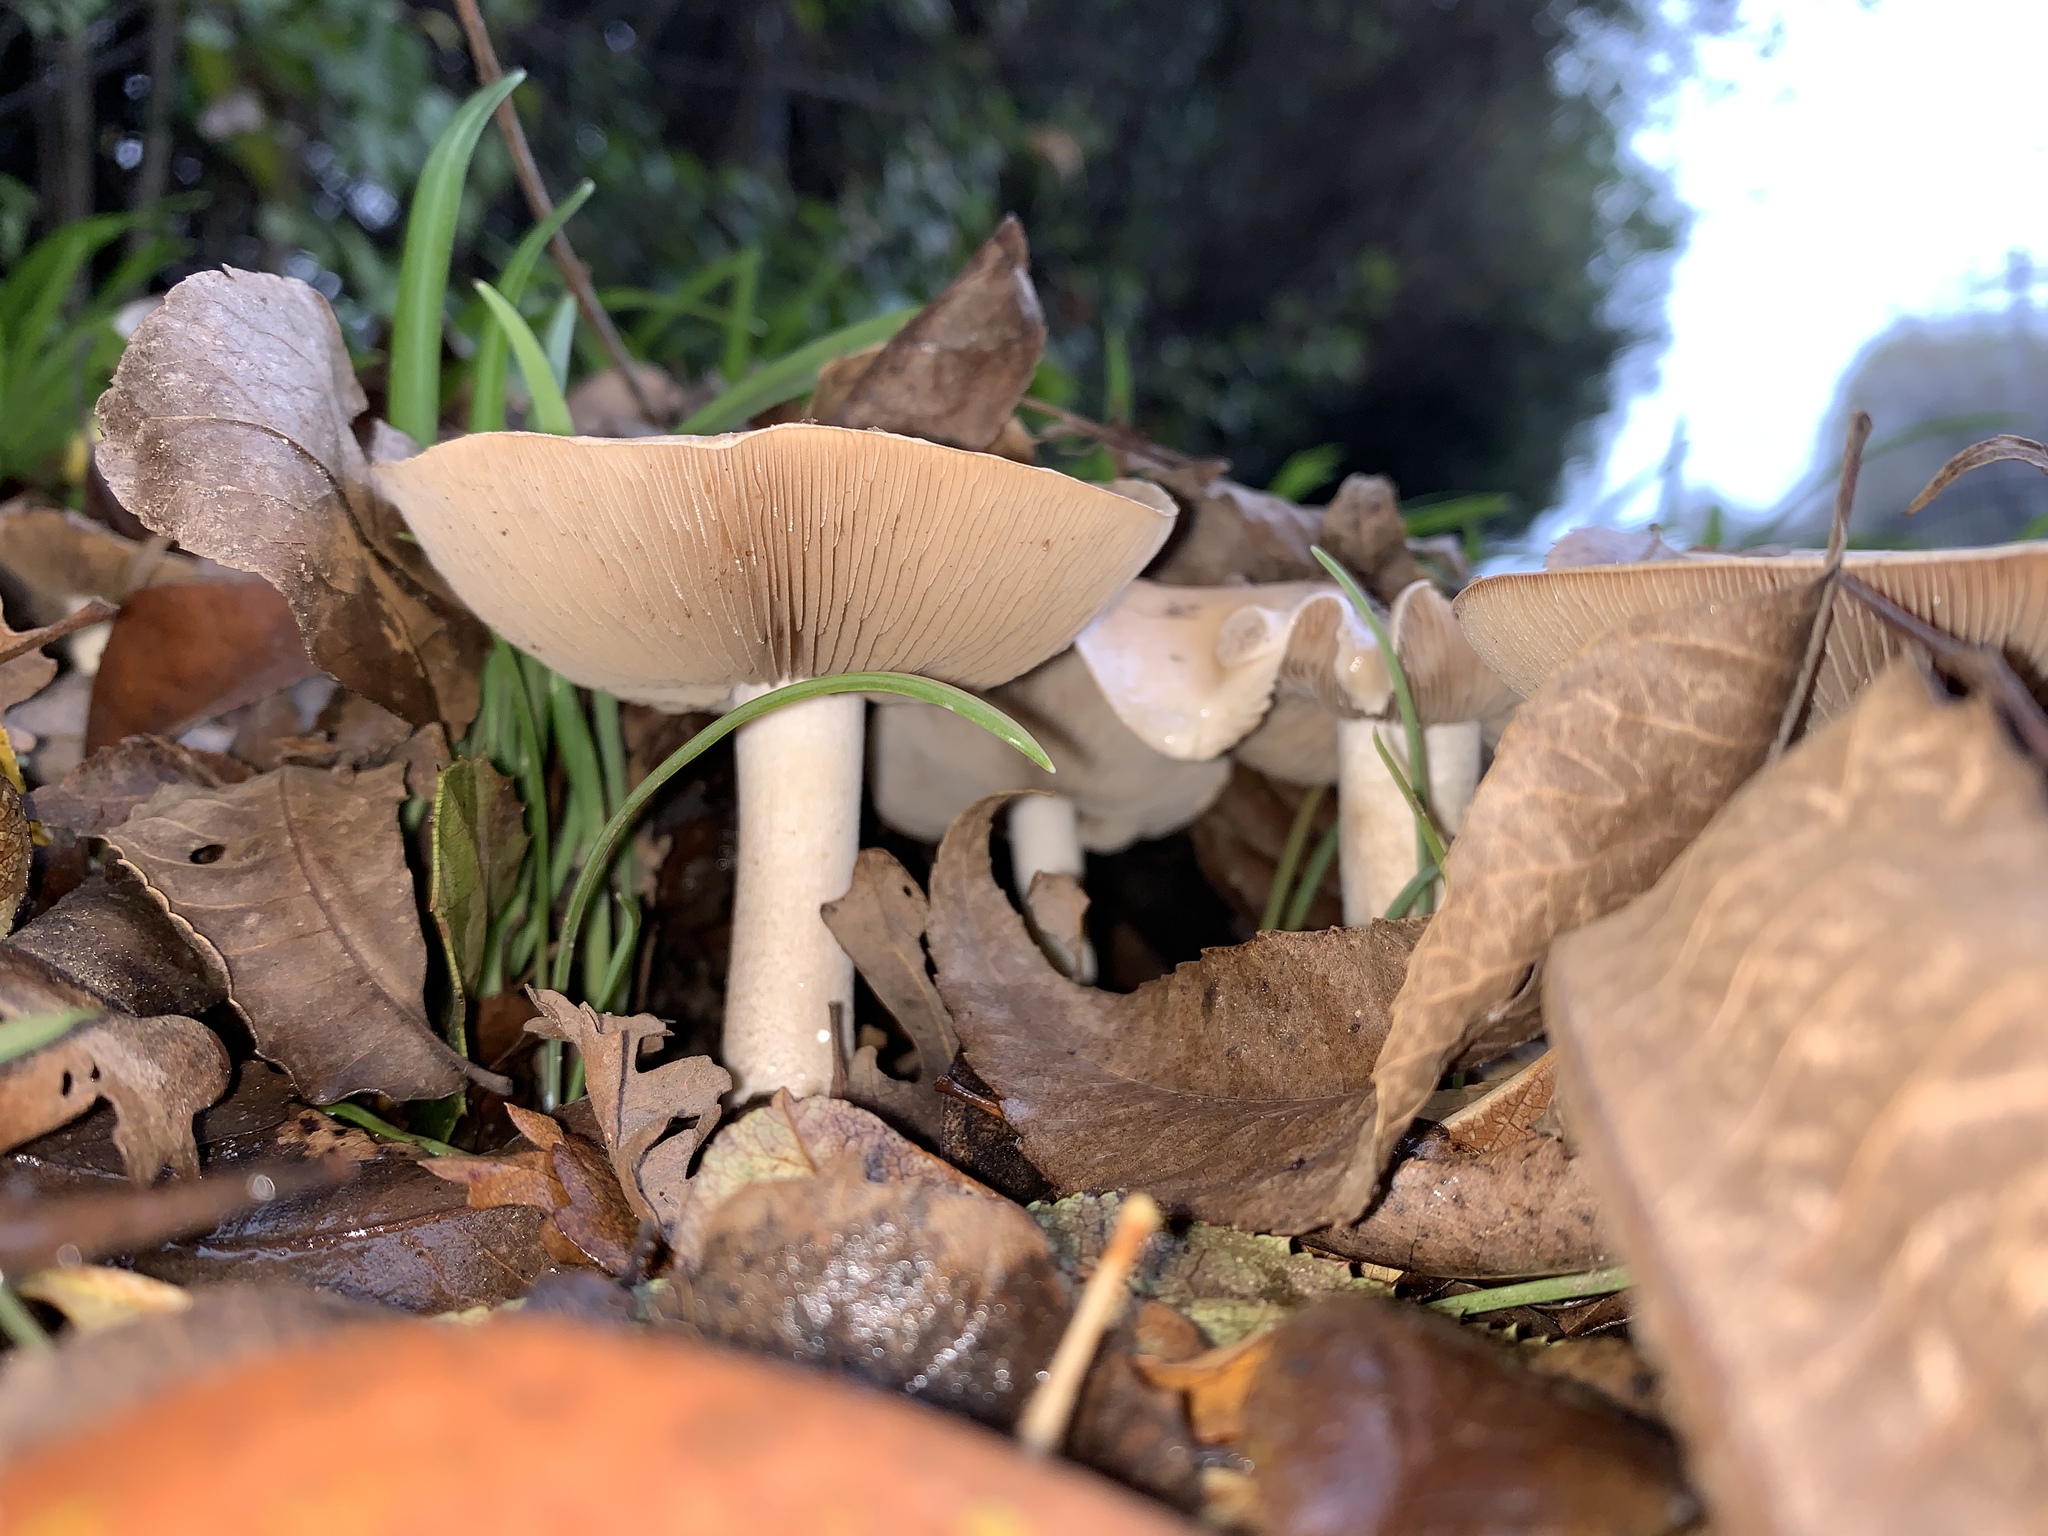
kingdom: Fungi
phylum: Basidiomycota
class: Agaricomycetes
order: Agaricales
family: Hymenogastraceae
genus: Hebeloma
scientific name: Hebeloma crustuliniforme
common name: Poison pie
